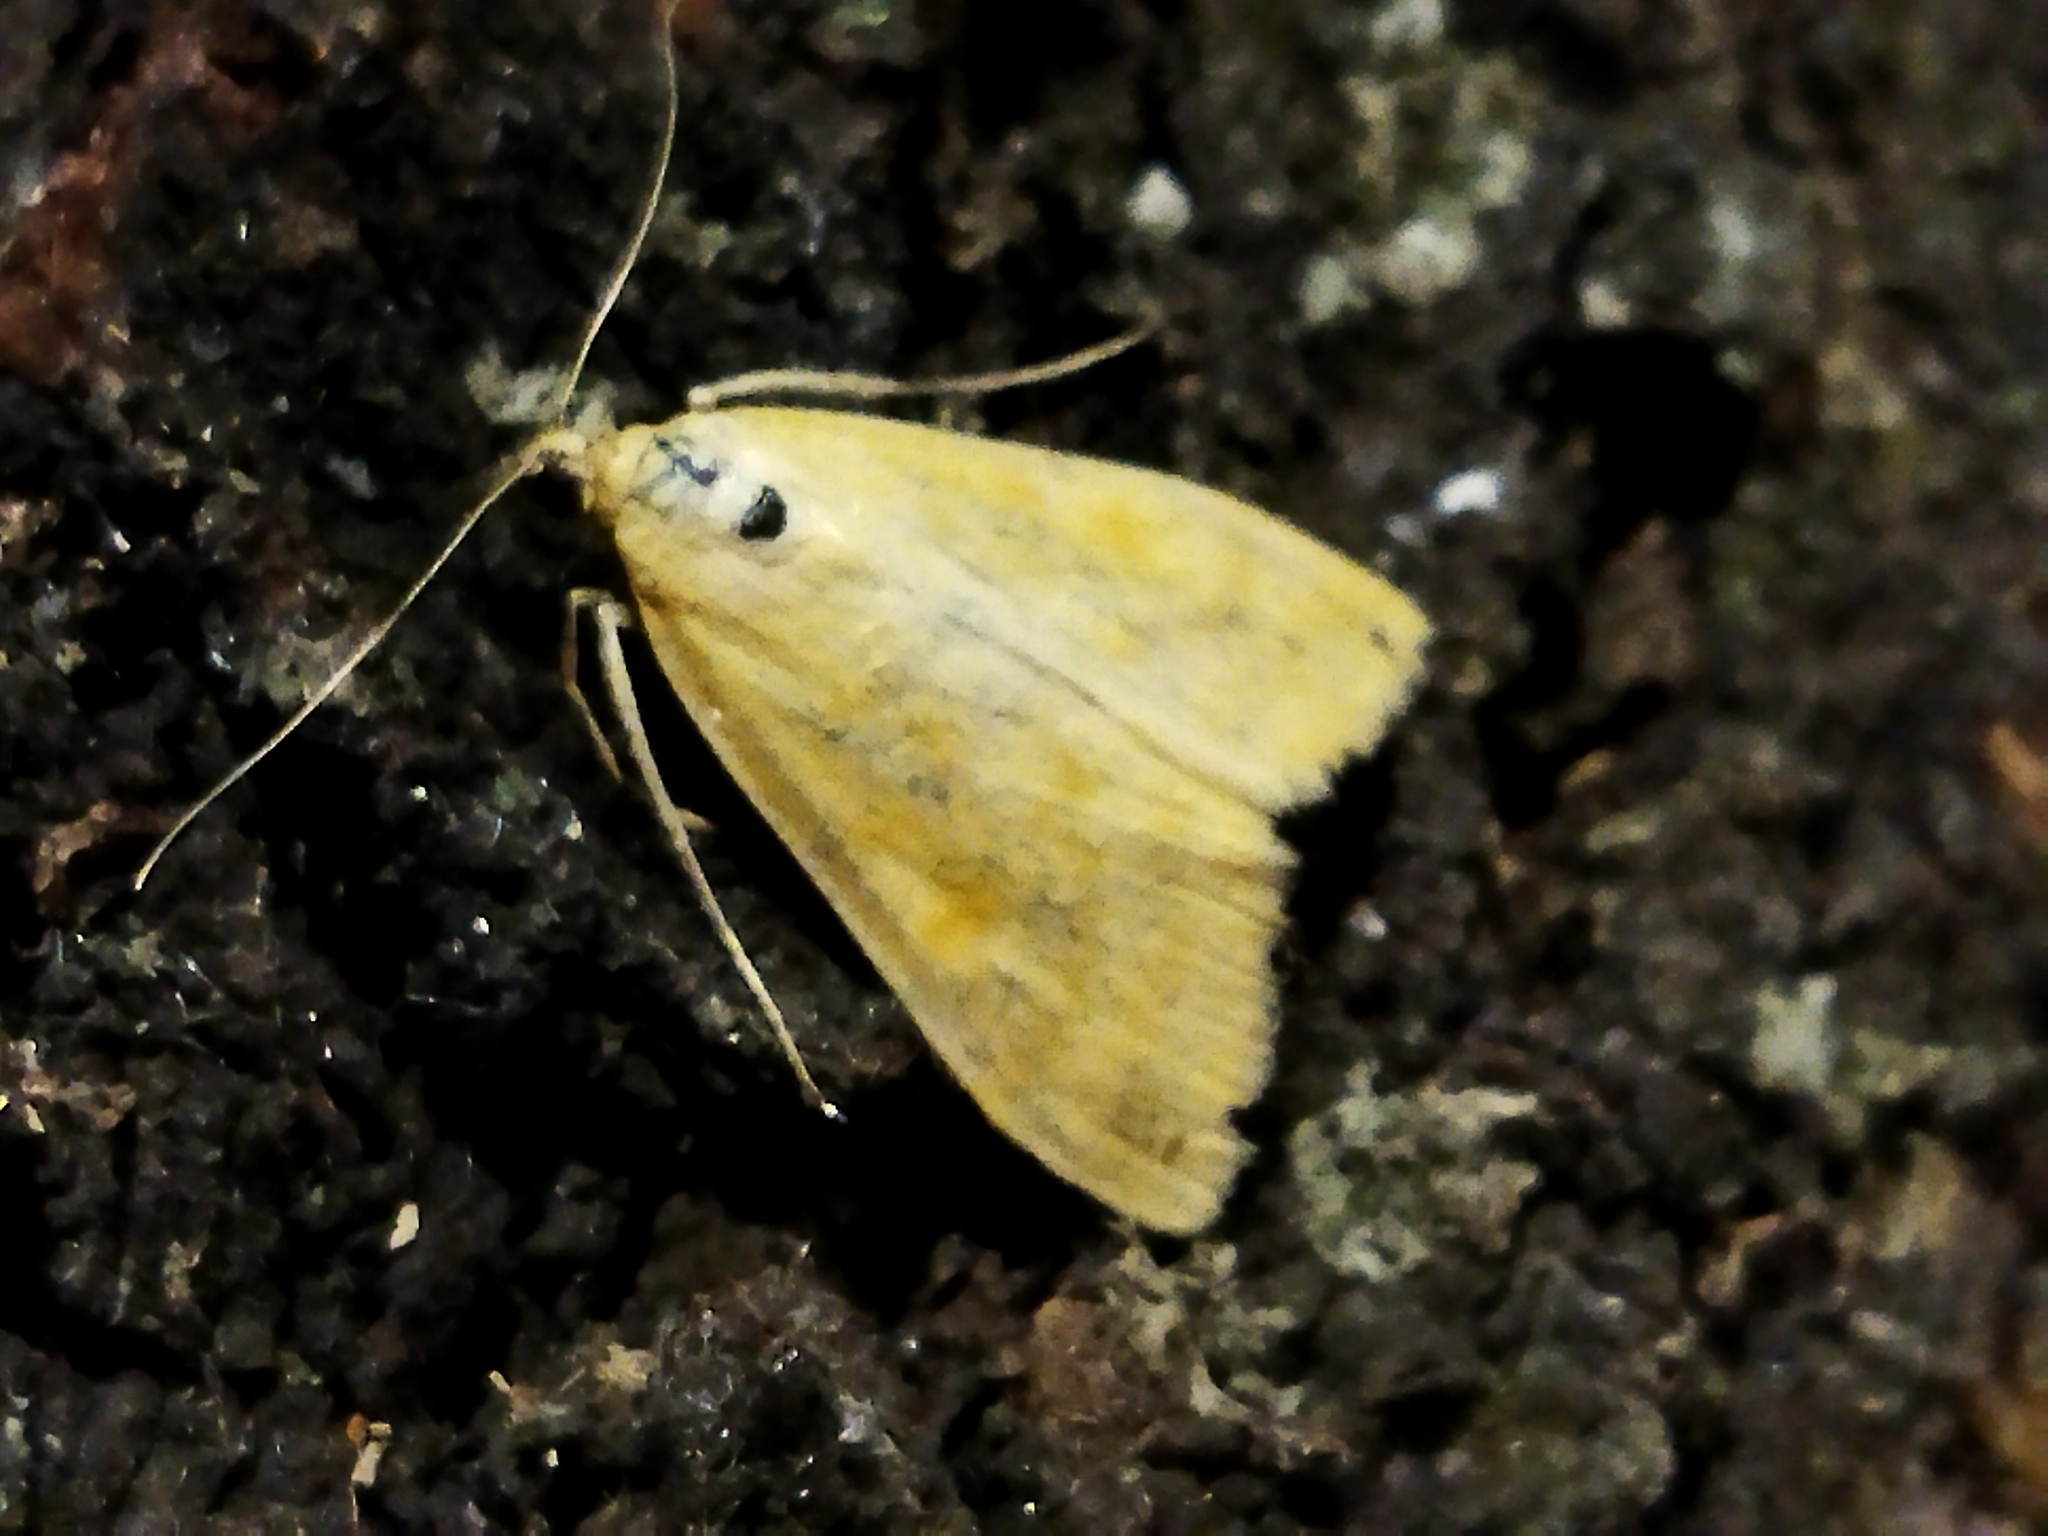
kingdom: Animalia
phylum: Arthropoda
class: Insecta
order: Lepidoptera
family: Crambidae
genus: Sitochroa
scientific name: Sitochroa verticalis
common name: Lesser pearl
